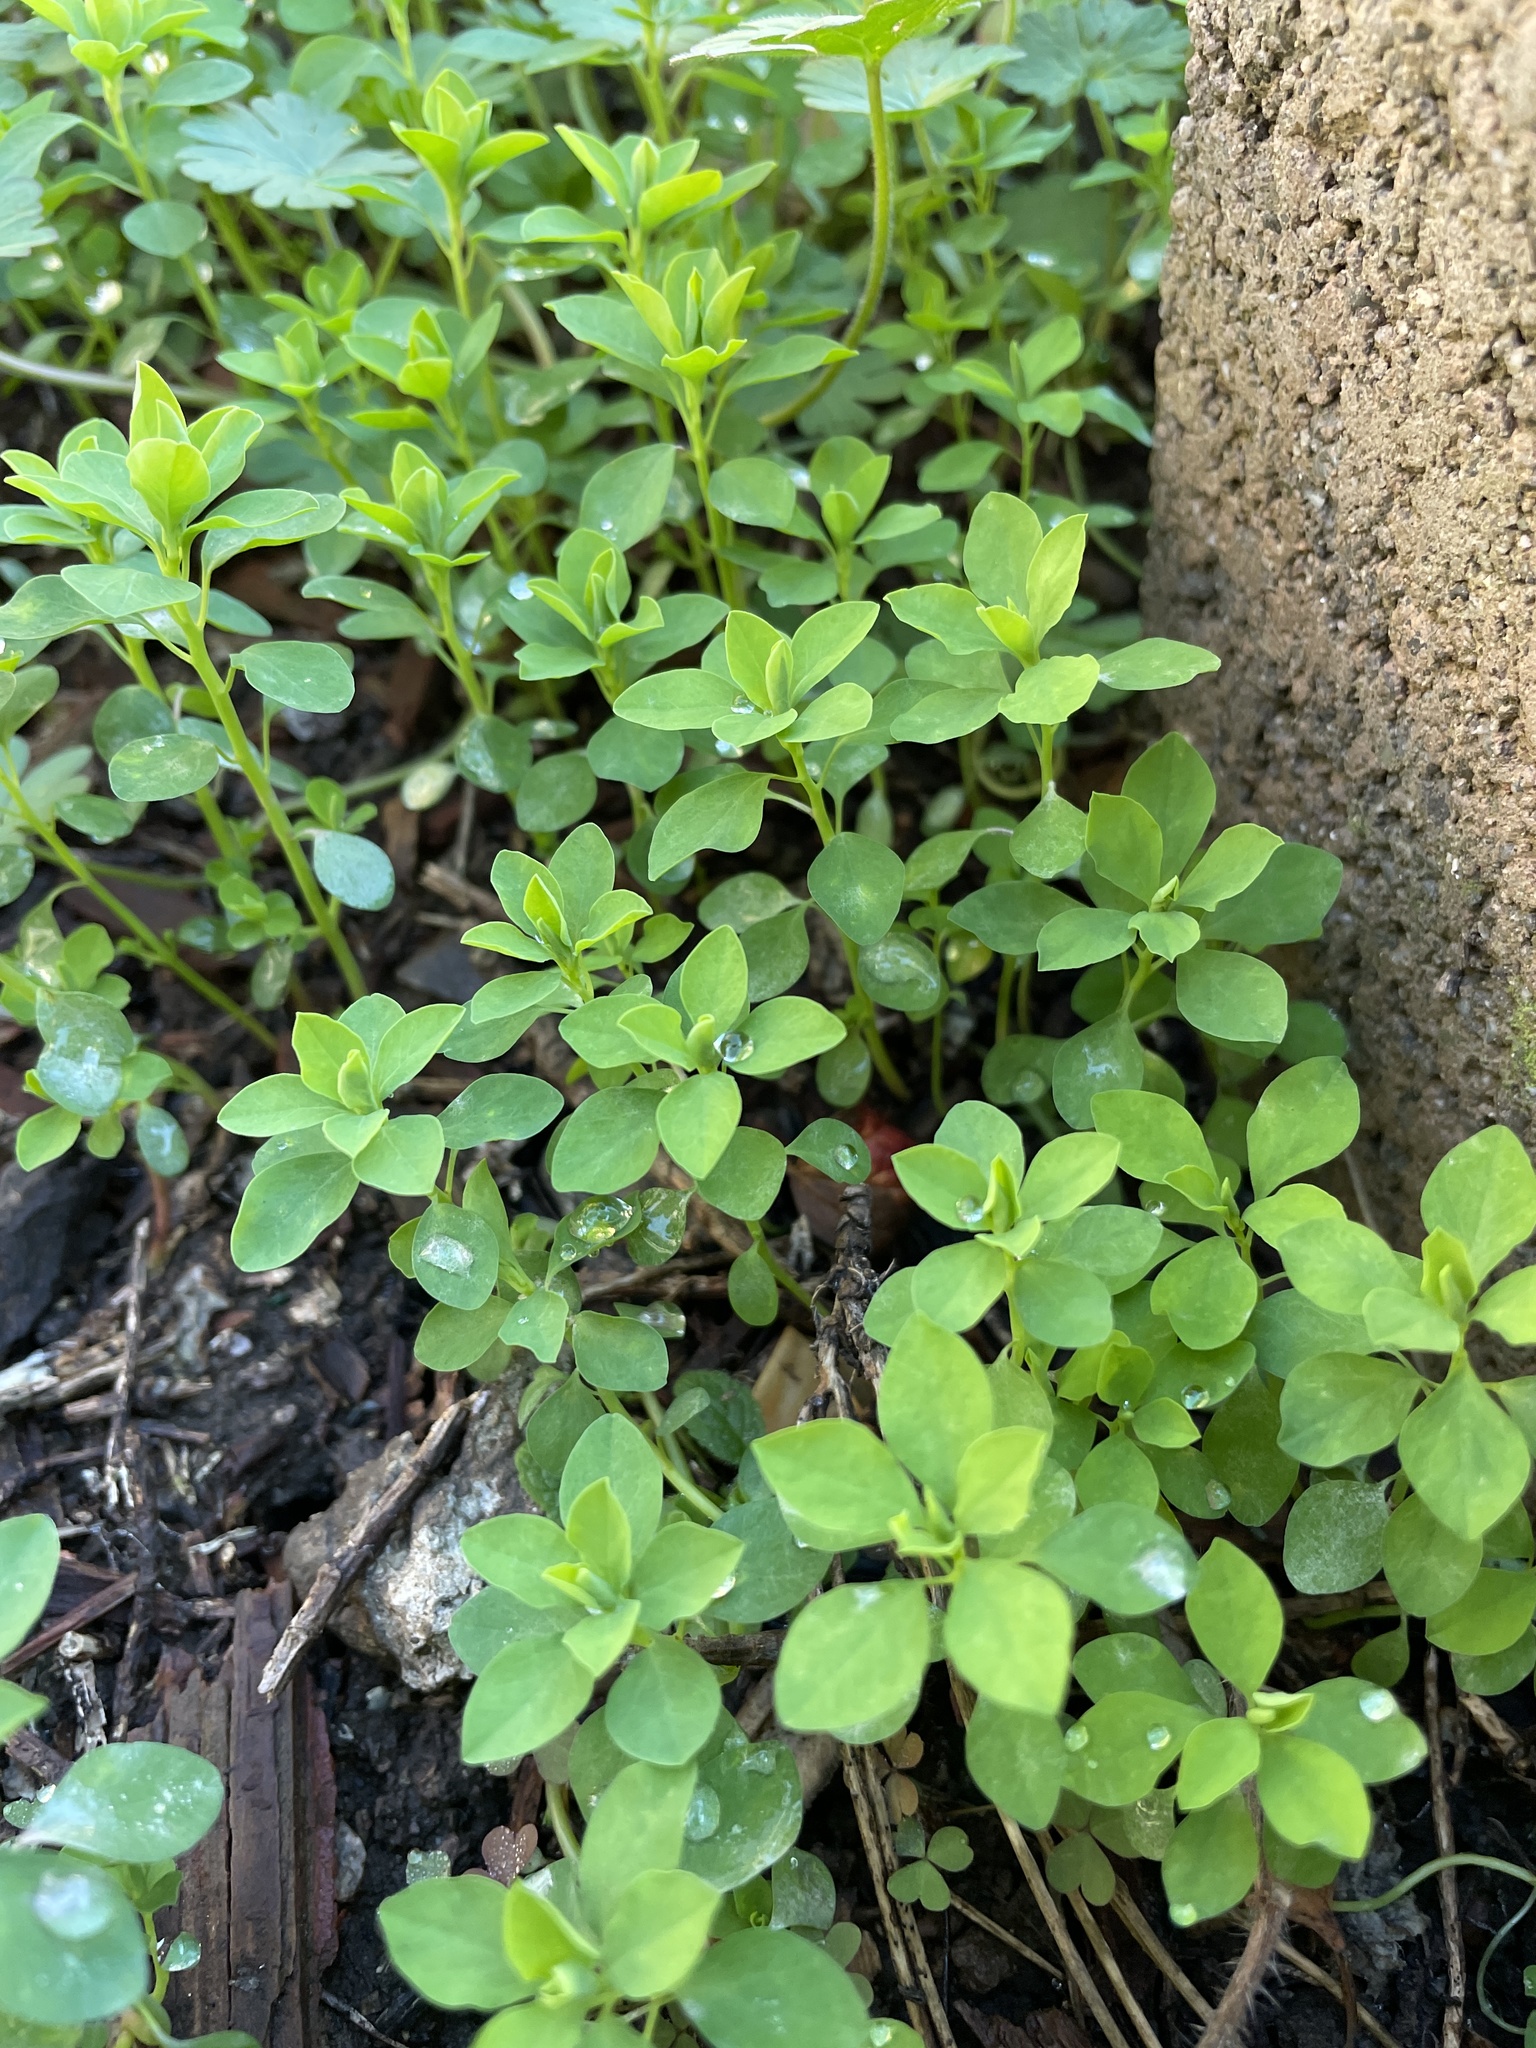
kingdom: Plantae
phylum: Tracheophyta
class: Magnoliopsida
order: Malpighiales
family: Euphorbiaceae
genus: Euphorbia
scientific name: Euphorbia peplus
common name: Petty spurge
